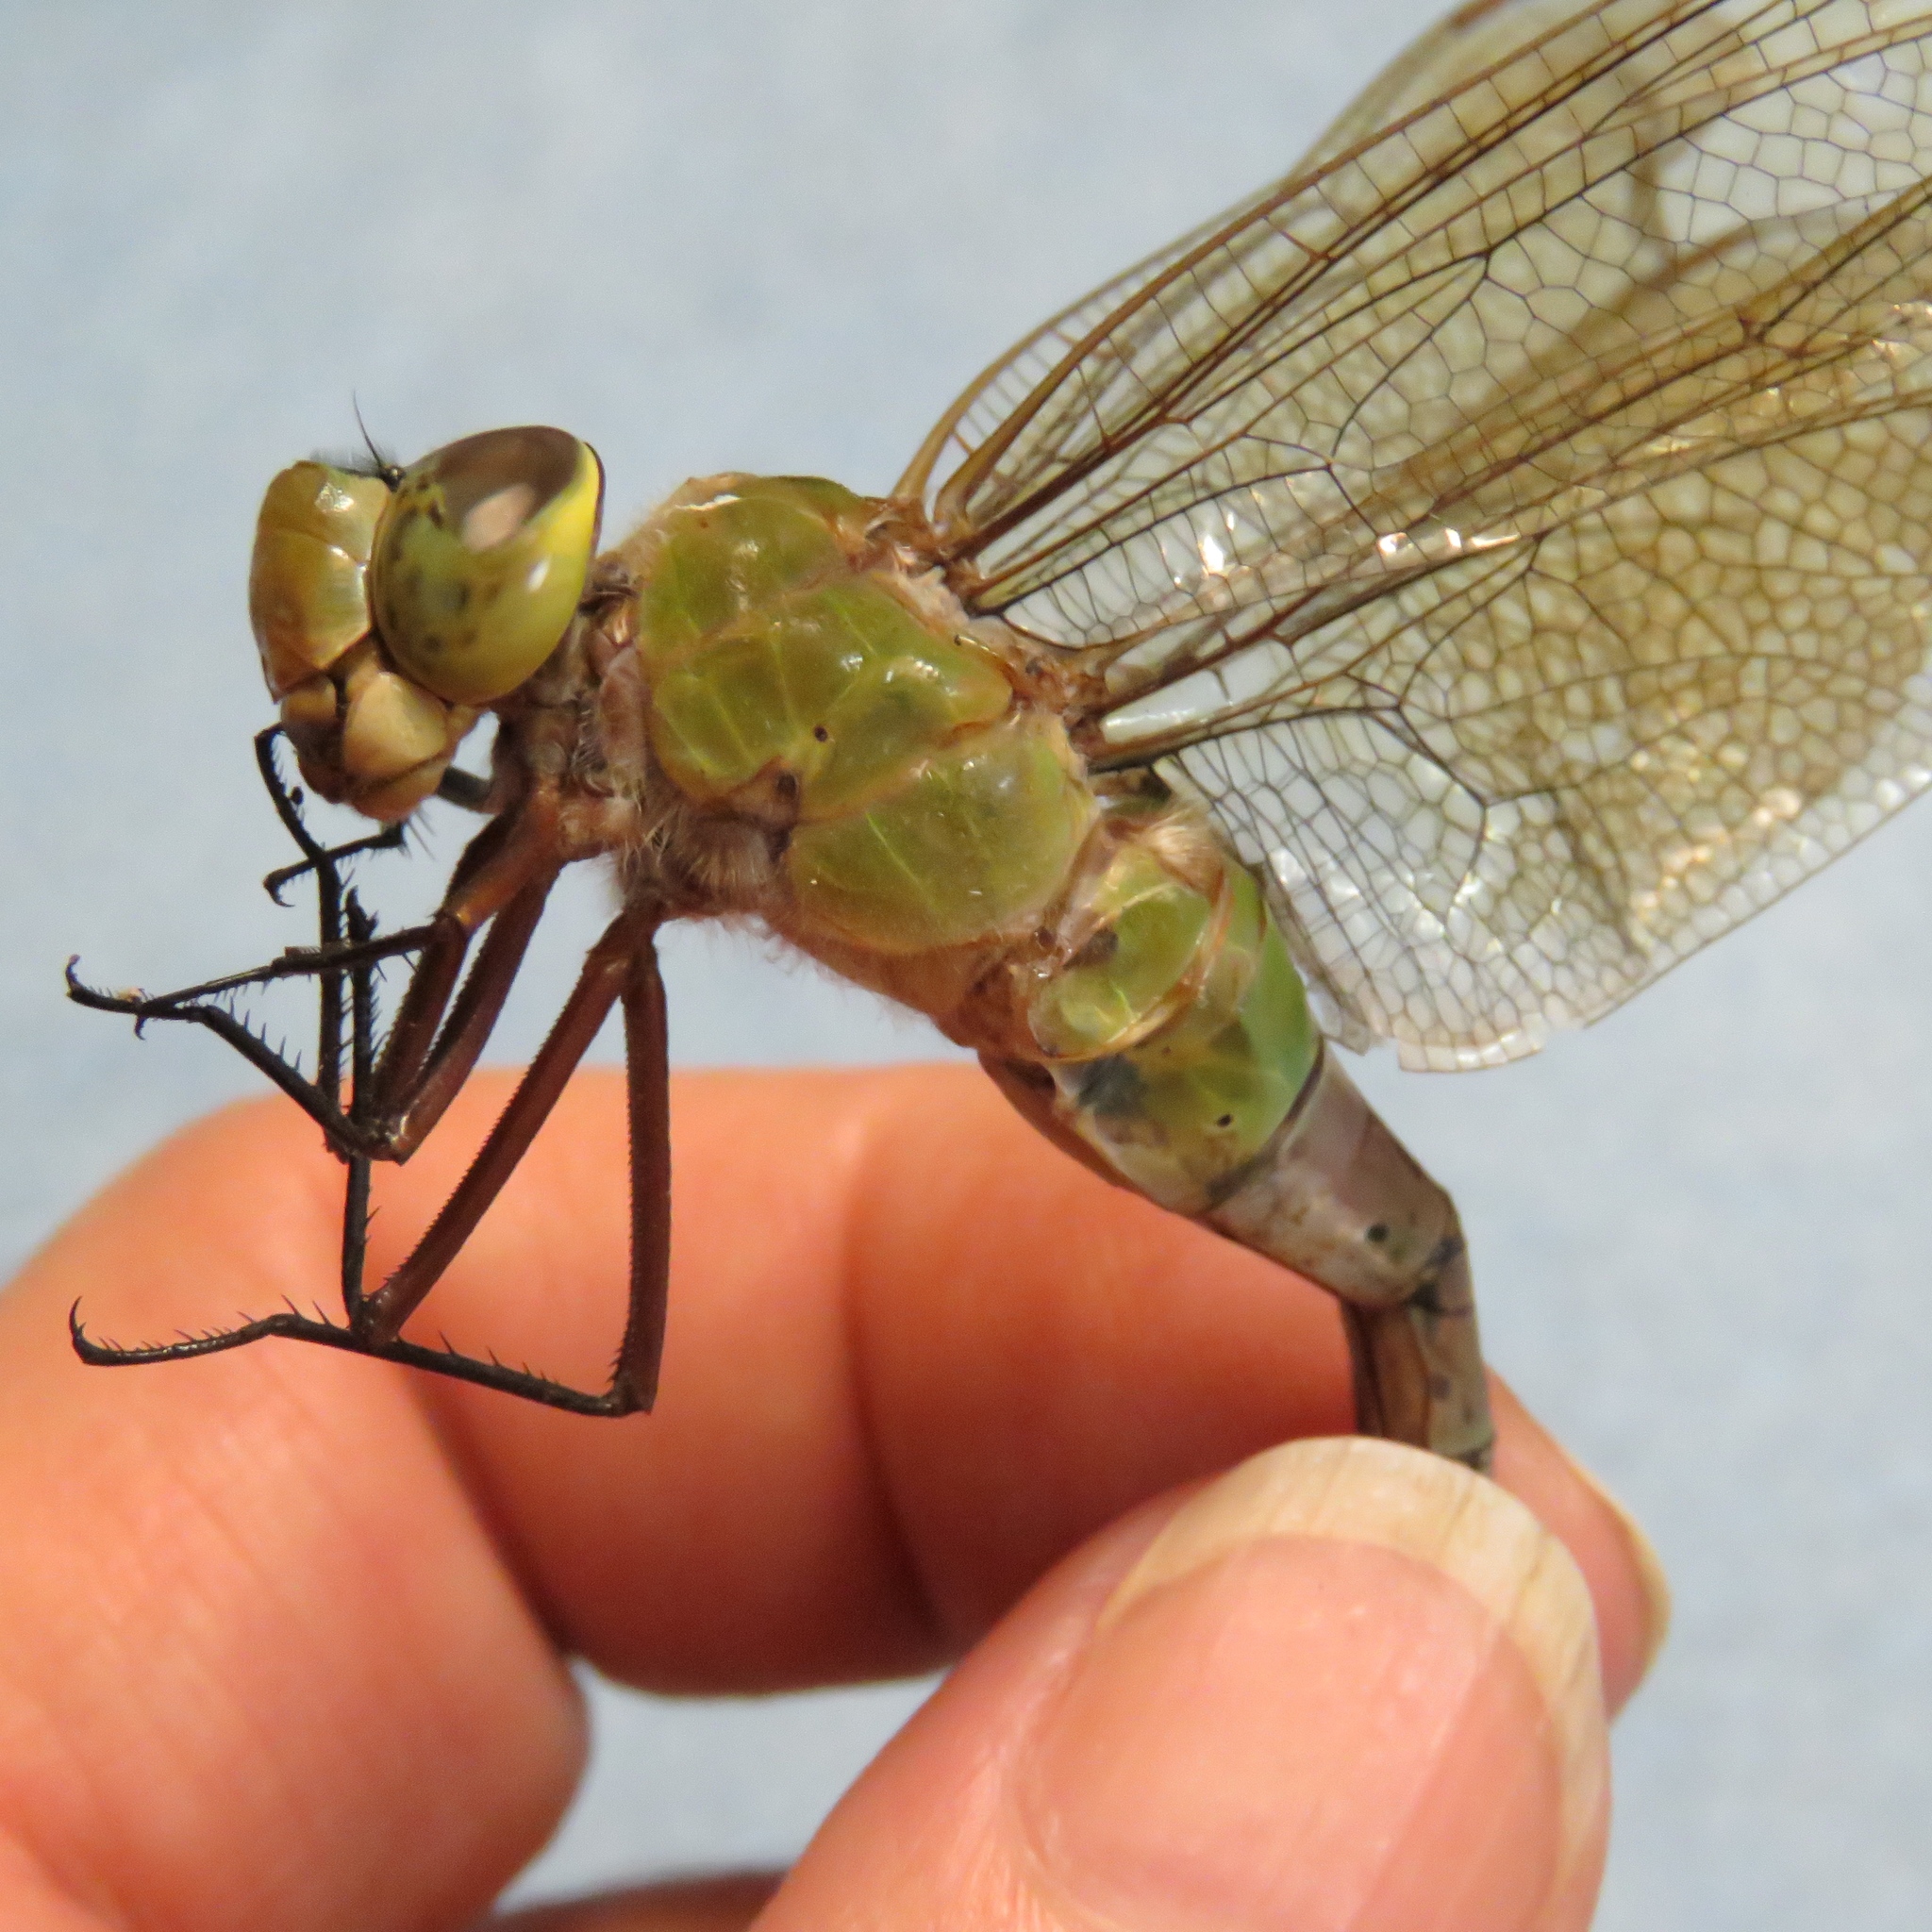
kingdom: Animalia
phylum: Arthropoda
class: Insecta
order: Odonata
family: Aeshnidae
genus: Anax
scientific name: Anax junius
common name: Common green darner
